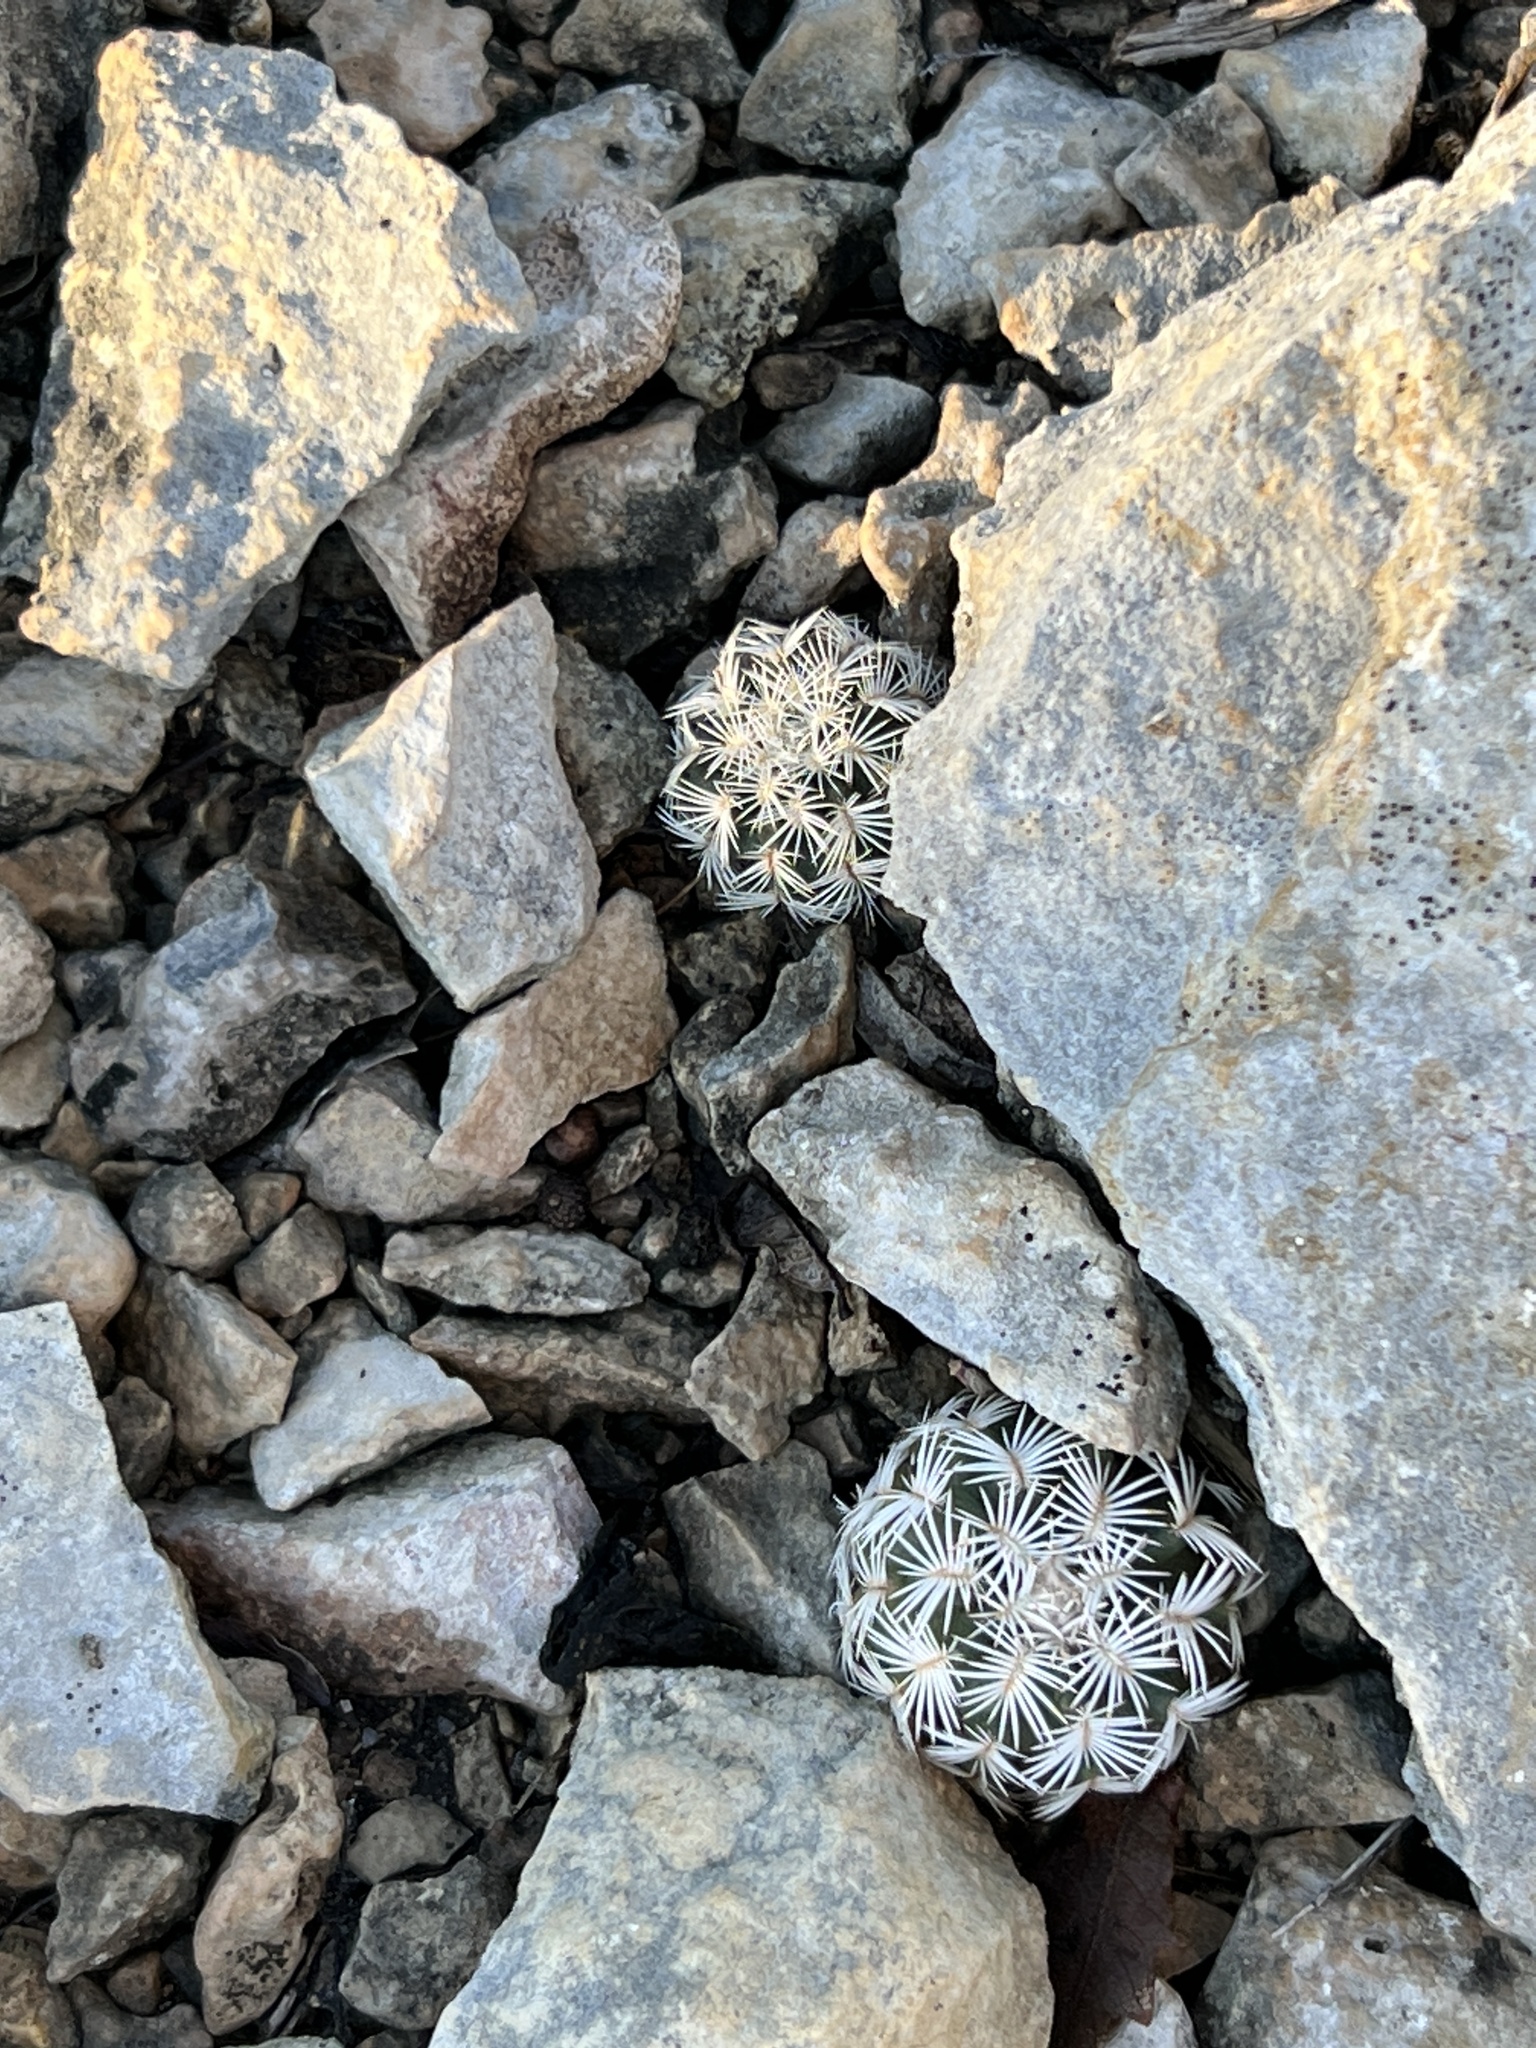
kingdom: Plantae
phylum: Tracheophyta
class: Magnoliopsida
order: Caryophyllales
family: Cactaceae
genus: Echinocereus
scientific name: Echinocereus reichenbachii
